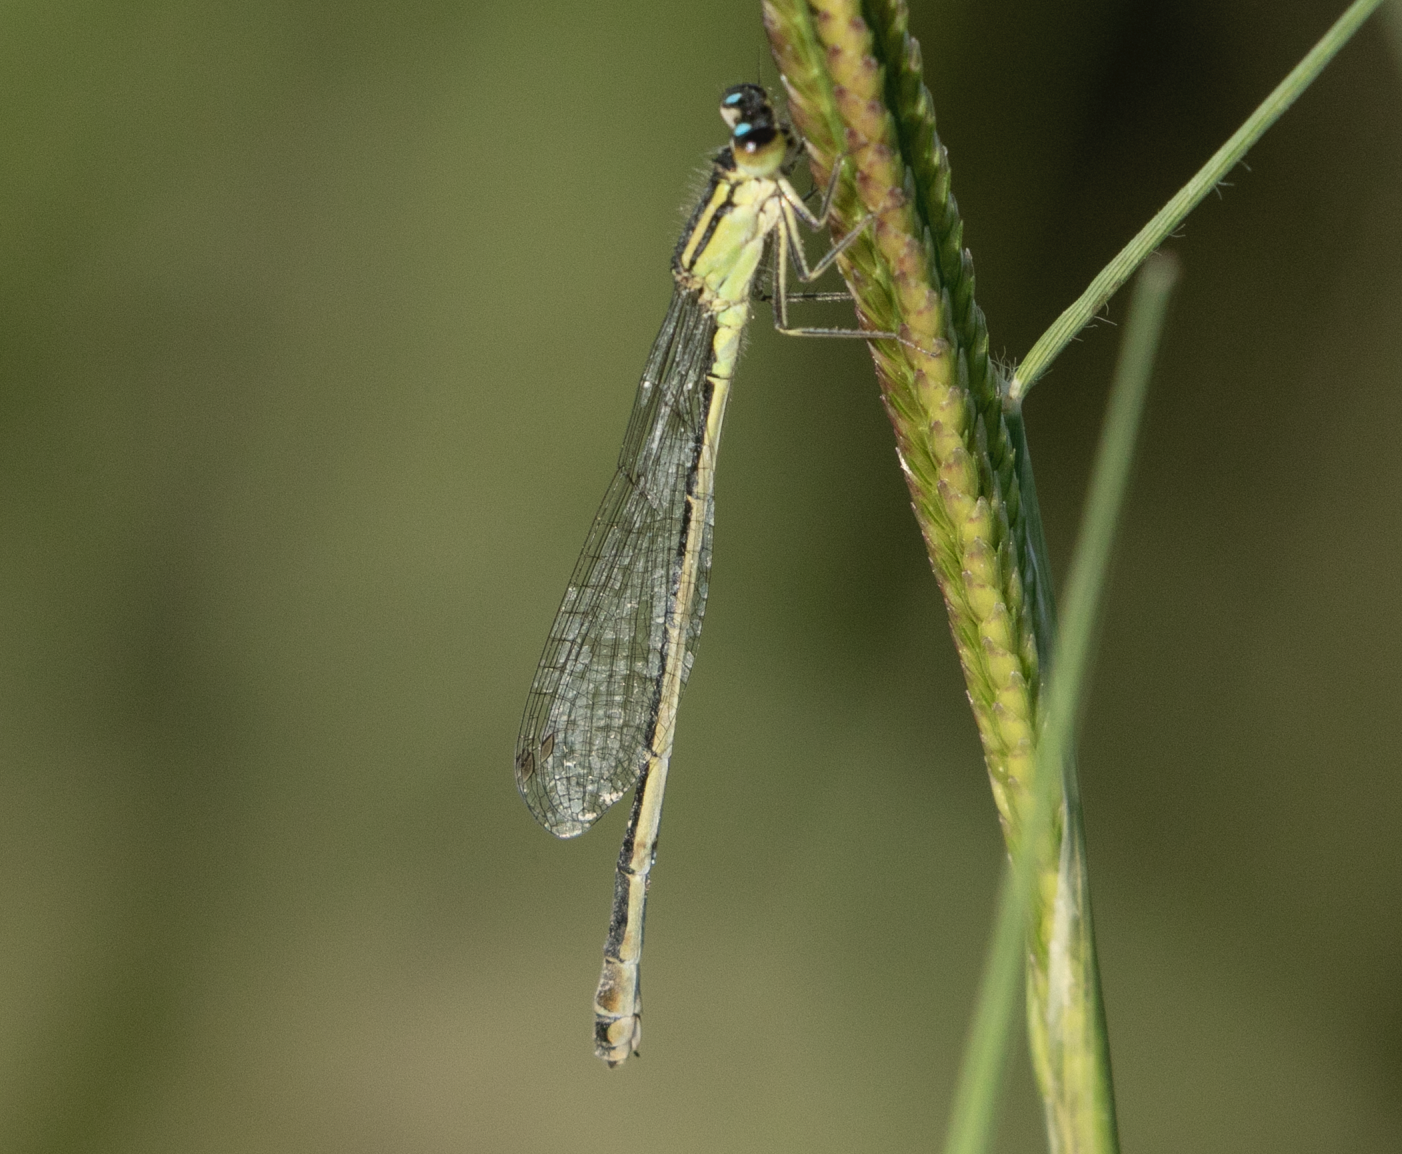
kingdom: Animalia
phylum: Arthropoda
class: Insecta
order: Odonata
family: Coenagrionidae
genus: Ischnura
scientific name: Ischnura elegans
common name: Blue-tailed damselfly
